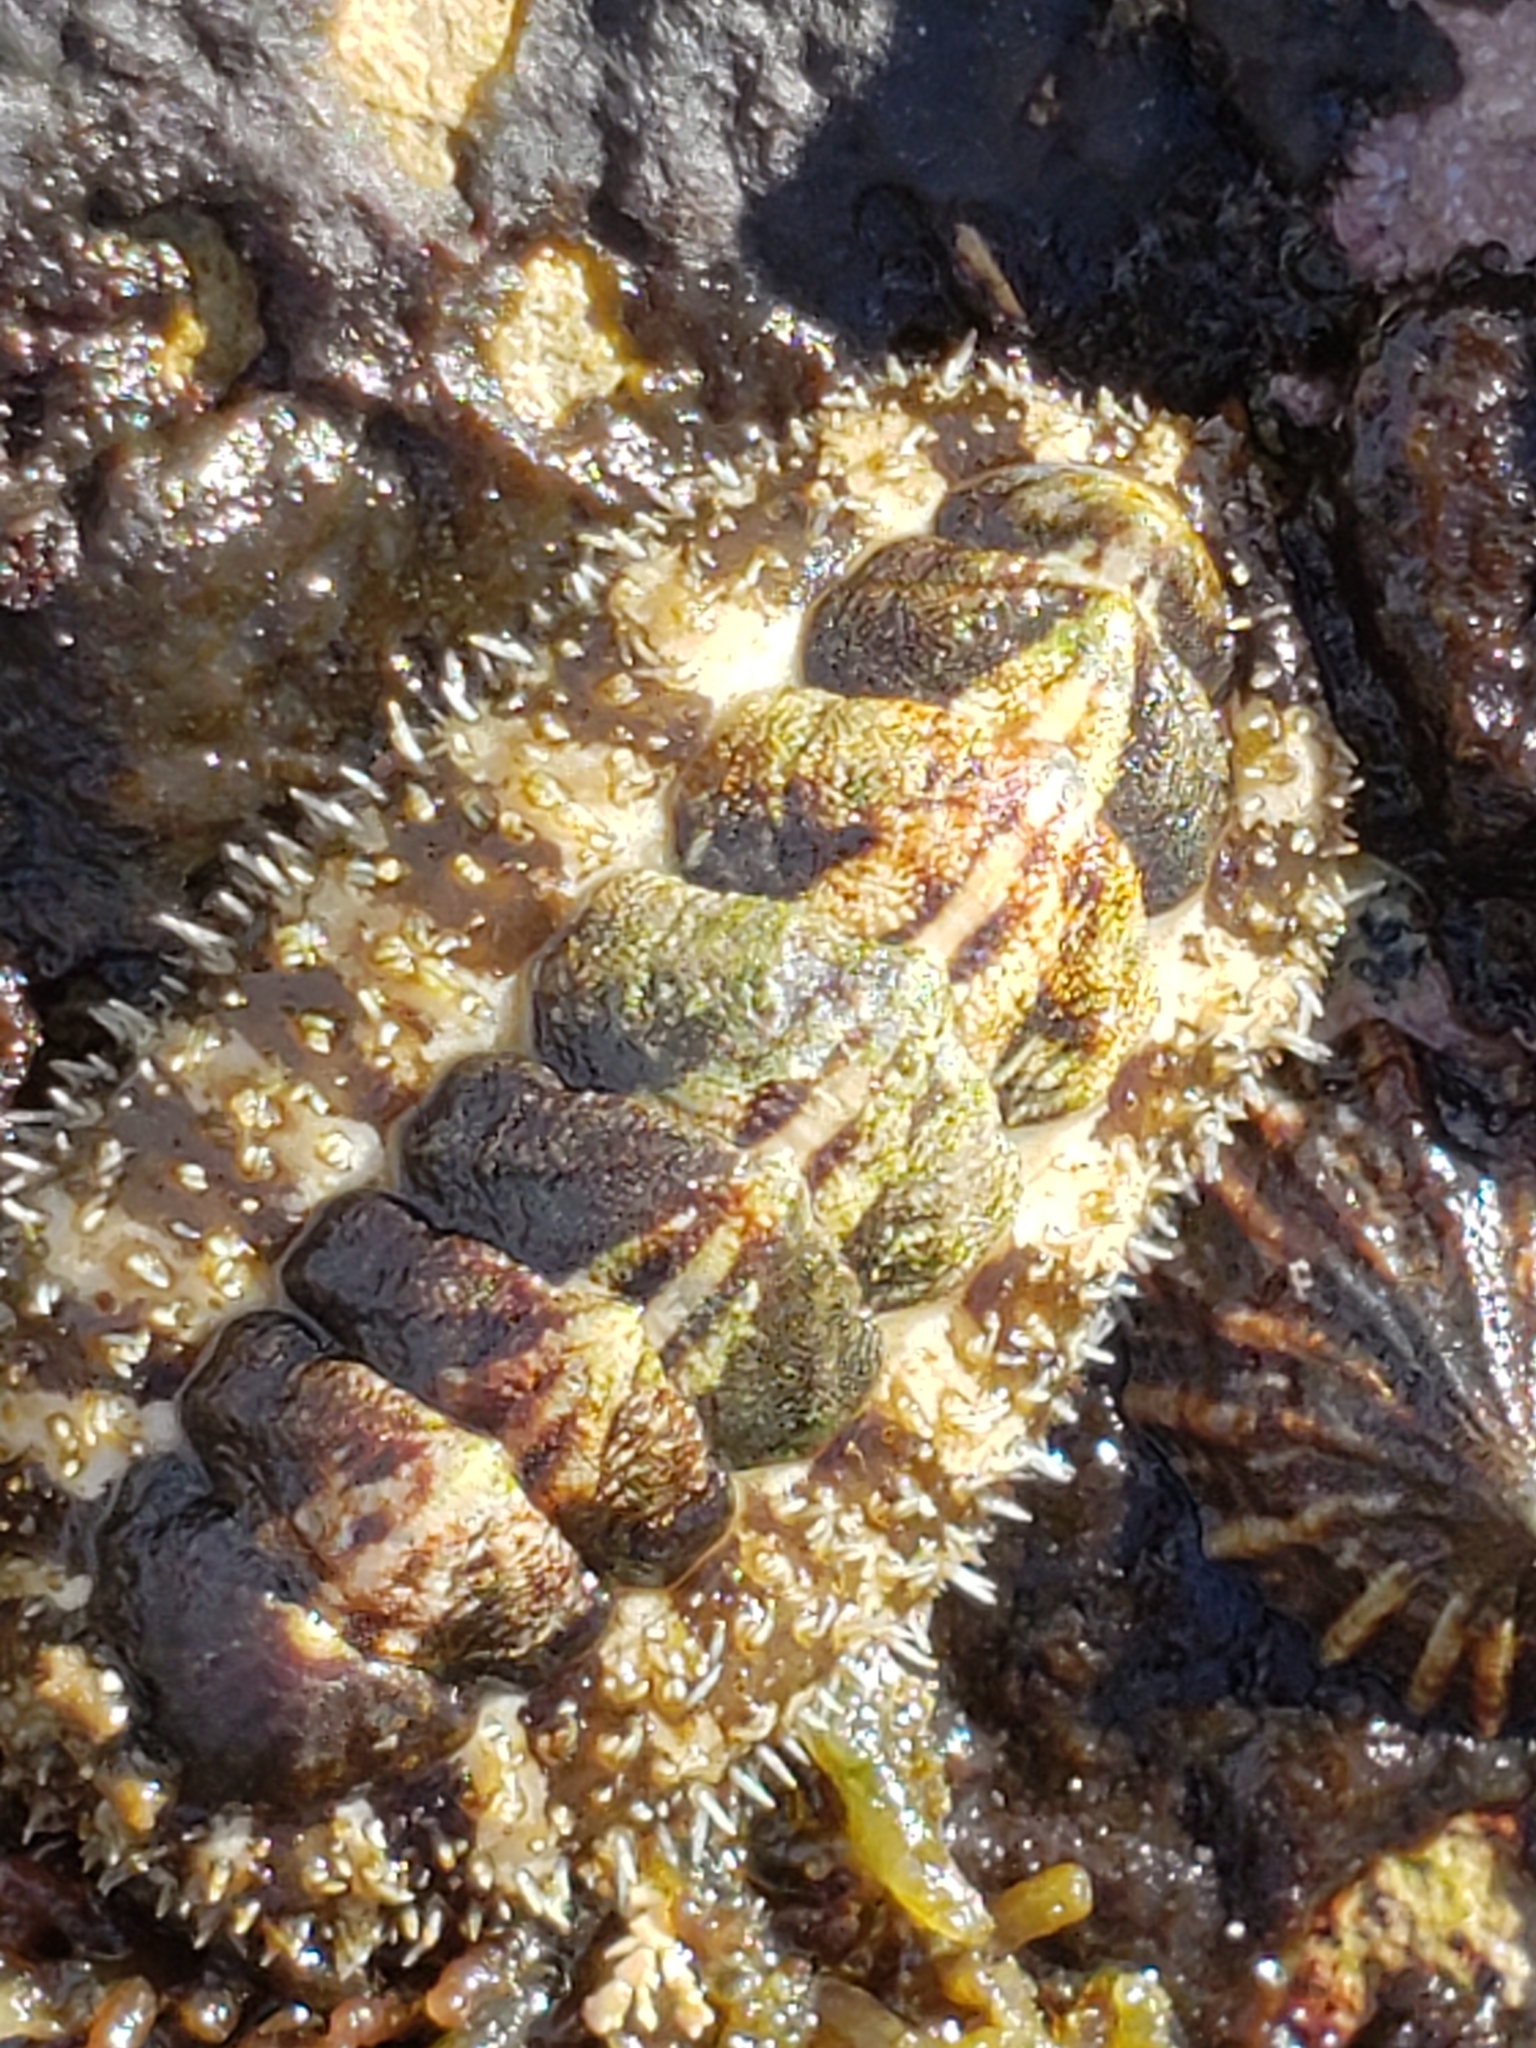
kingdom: Animalia
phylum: Mollusca
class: Polyplacophora
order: Chitonida
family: Tonicellidae
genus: Nuttallina
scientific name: Nuttallina californica
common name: California nuttall chiton
